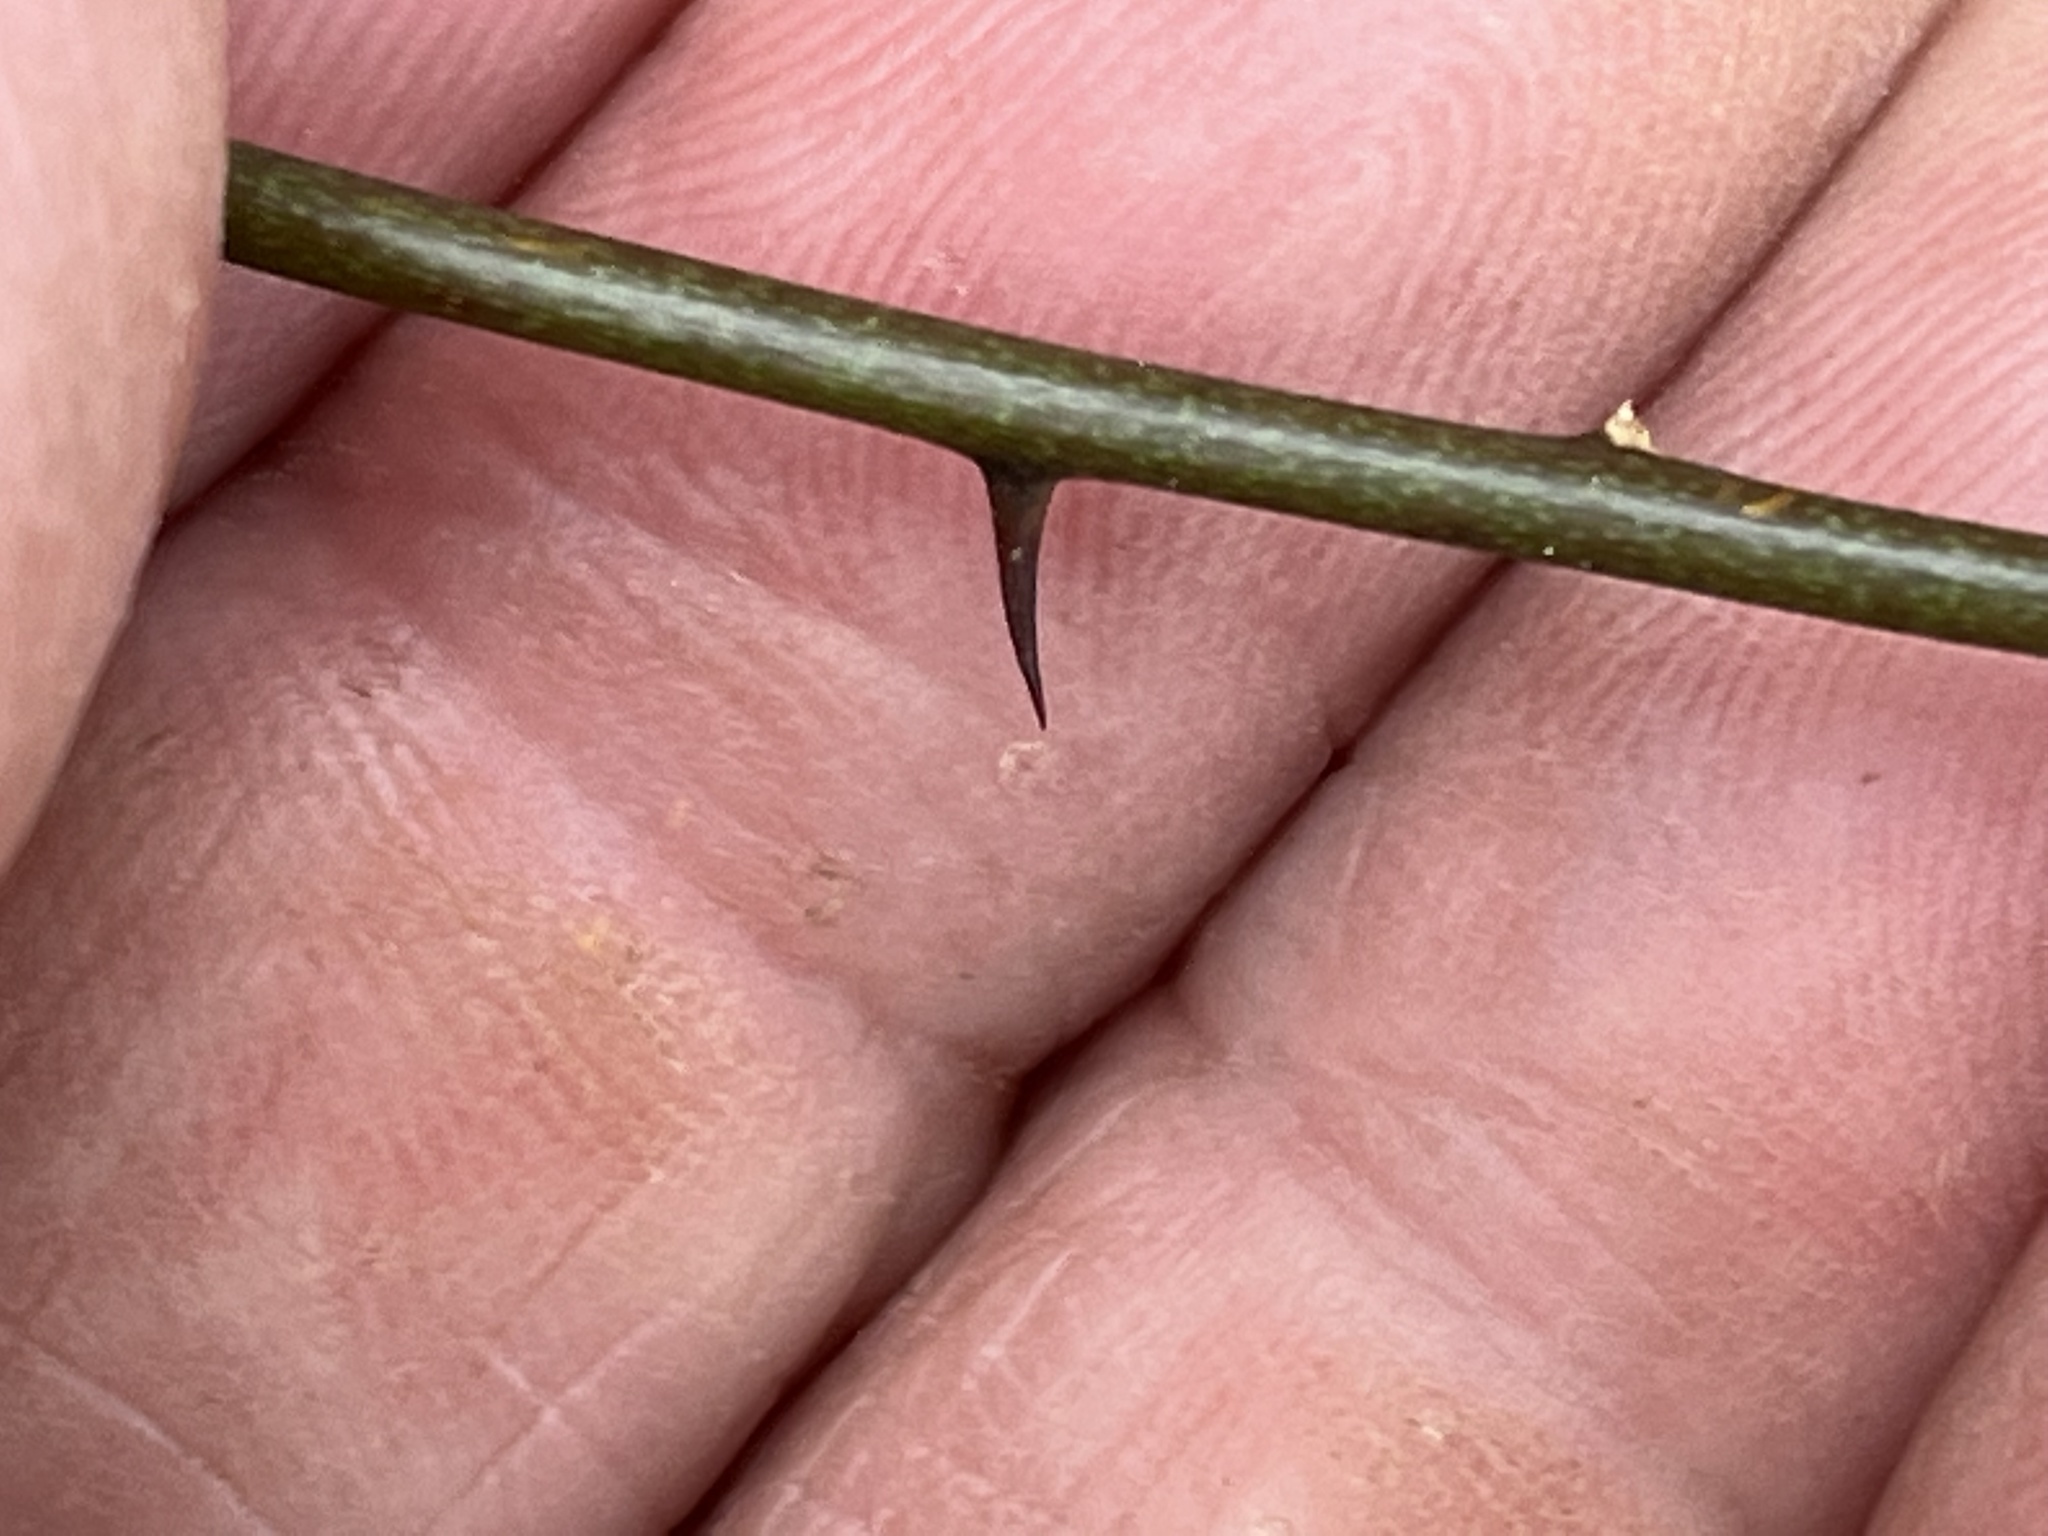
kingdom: Plantae
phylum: Tracheophyta
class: Liliopsida
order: Liliales
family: Smilacaceae
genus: Smilax
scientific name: Smilax glauca
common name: Cat greenbrier
